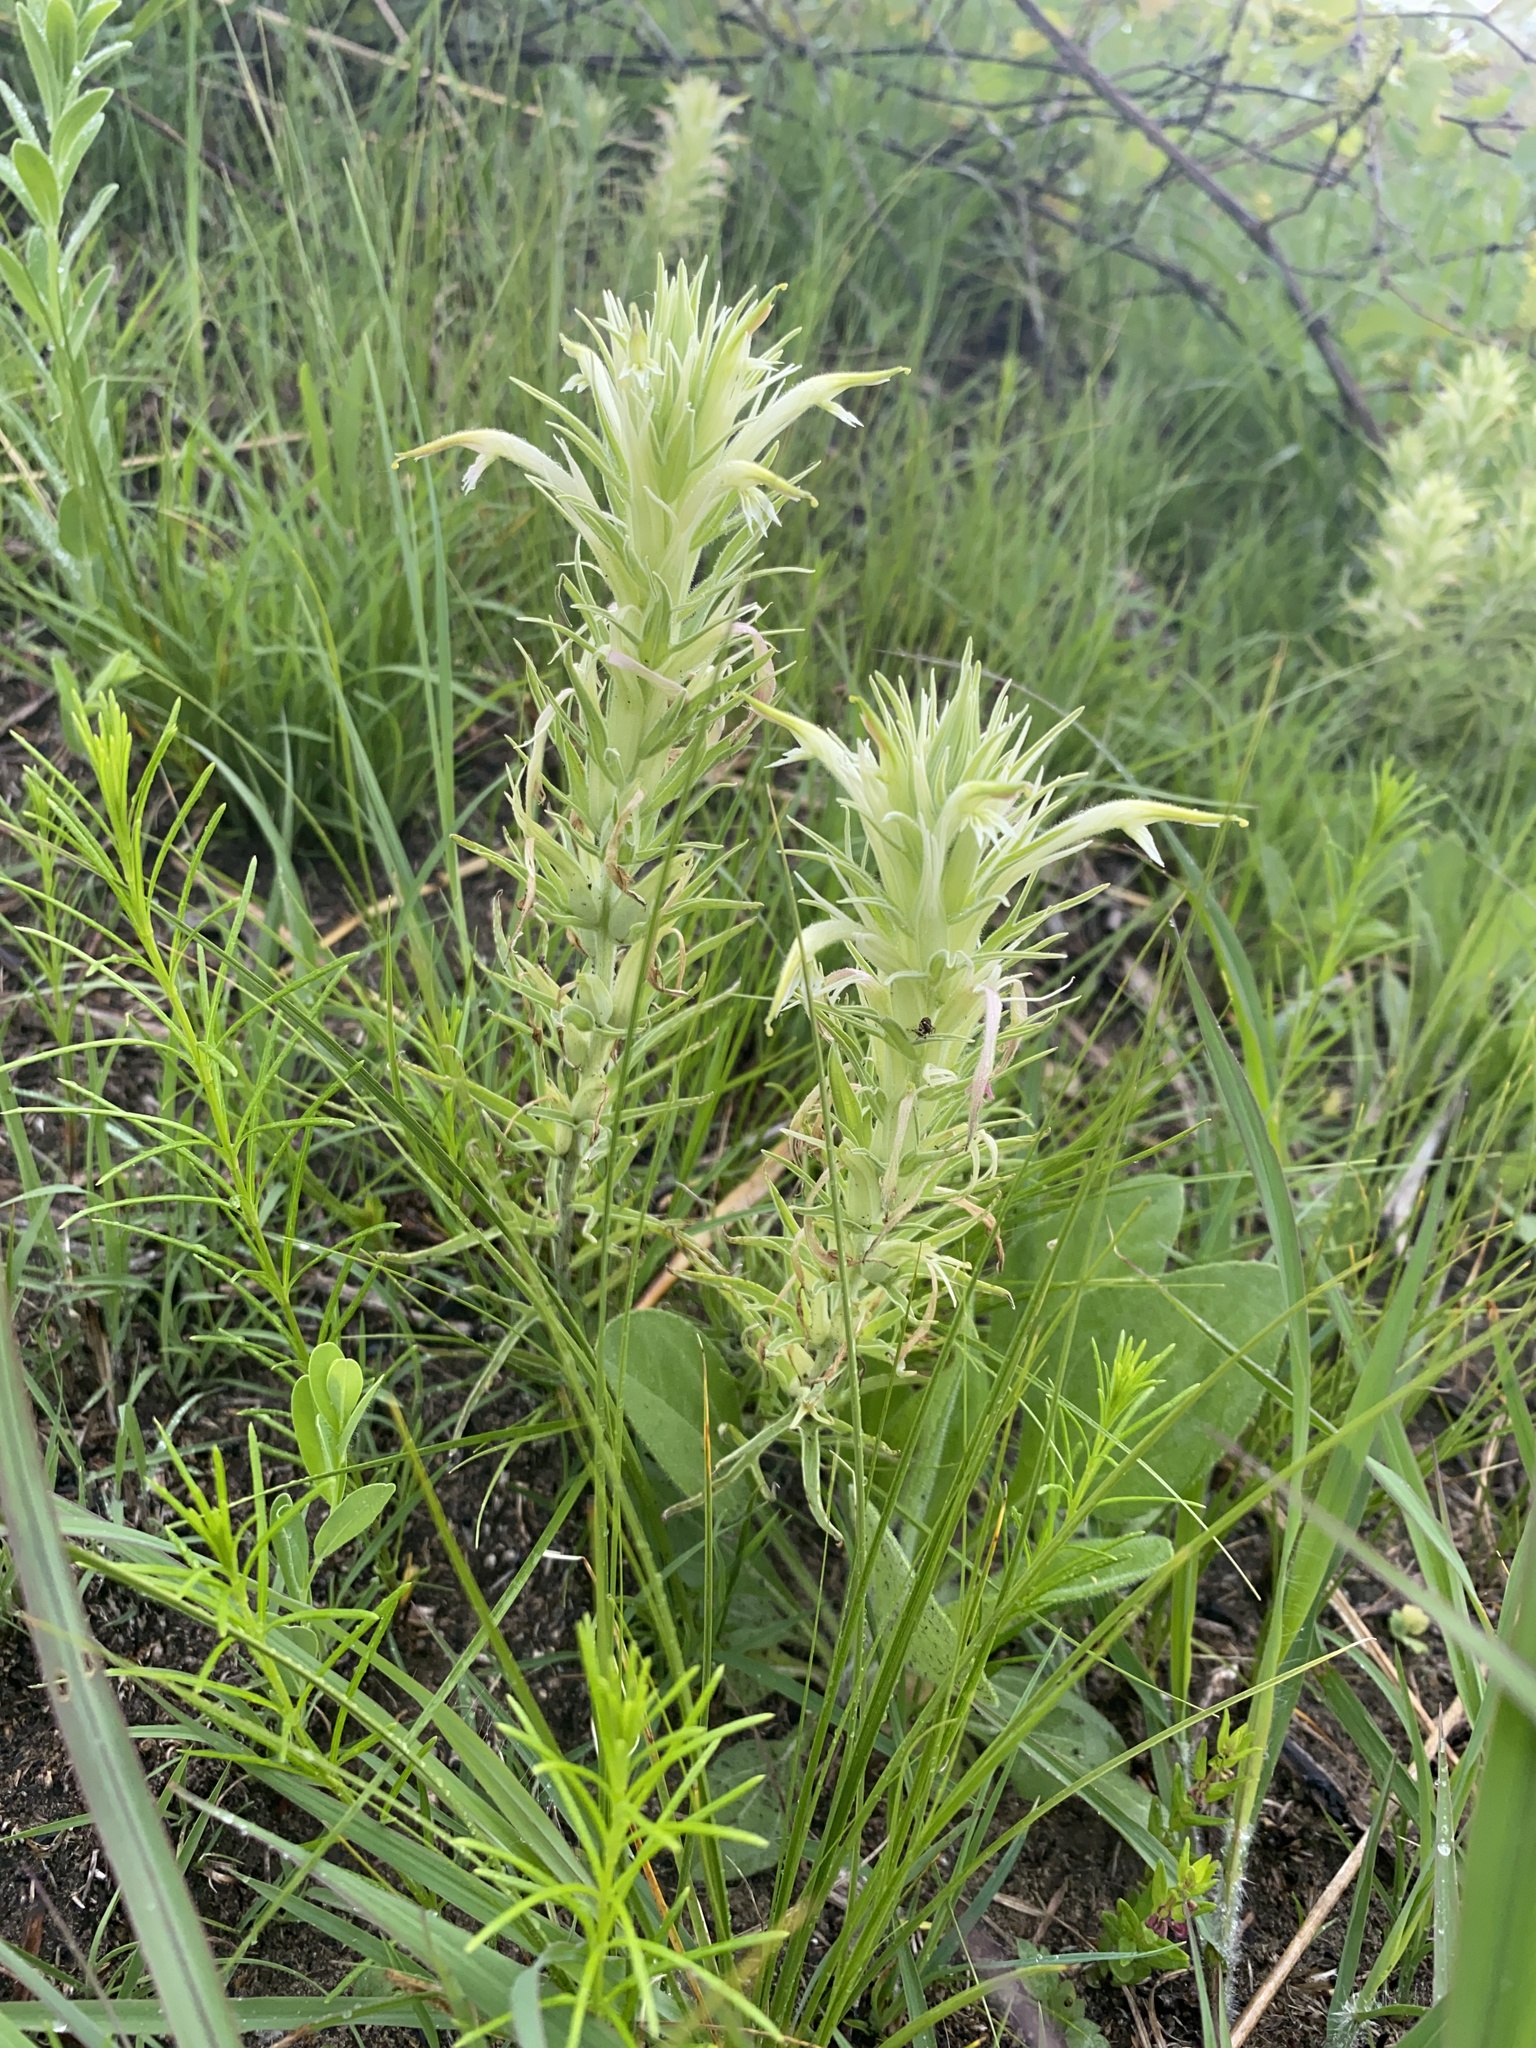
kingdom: Plantae
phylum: Tracheophyta
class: Magnoliopsida
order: Lamiales
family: Orobanchaceae
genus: Castilleja
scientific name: Castilleja sessiliflora
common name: Downy paintbrush
